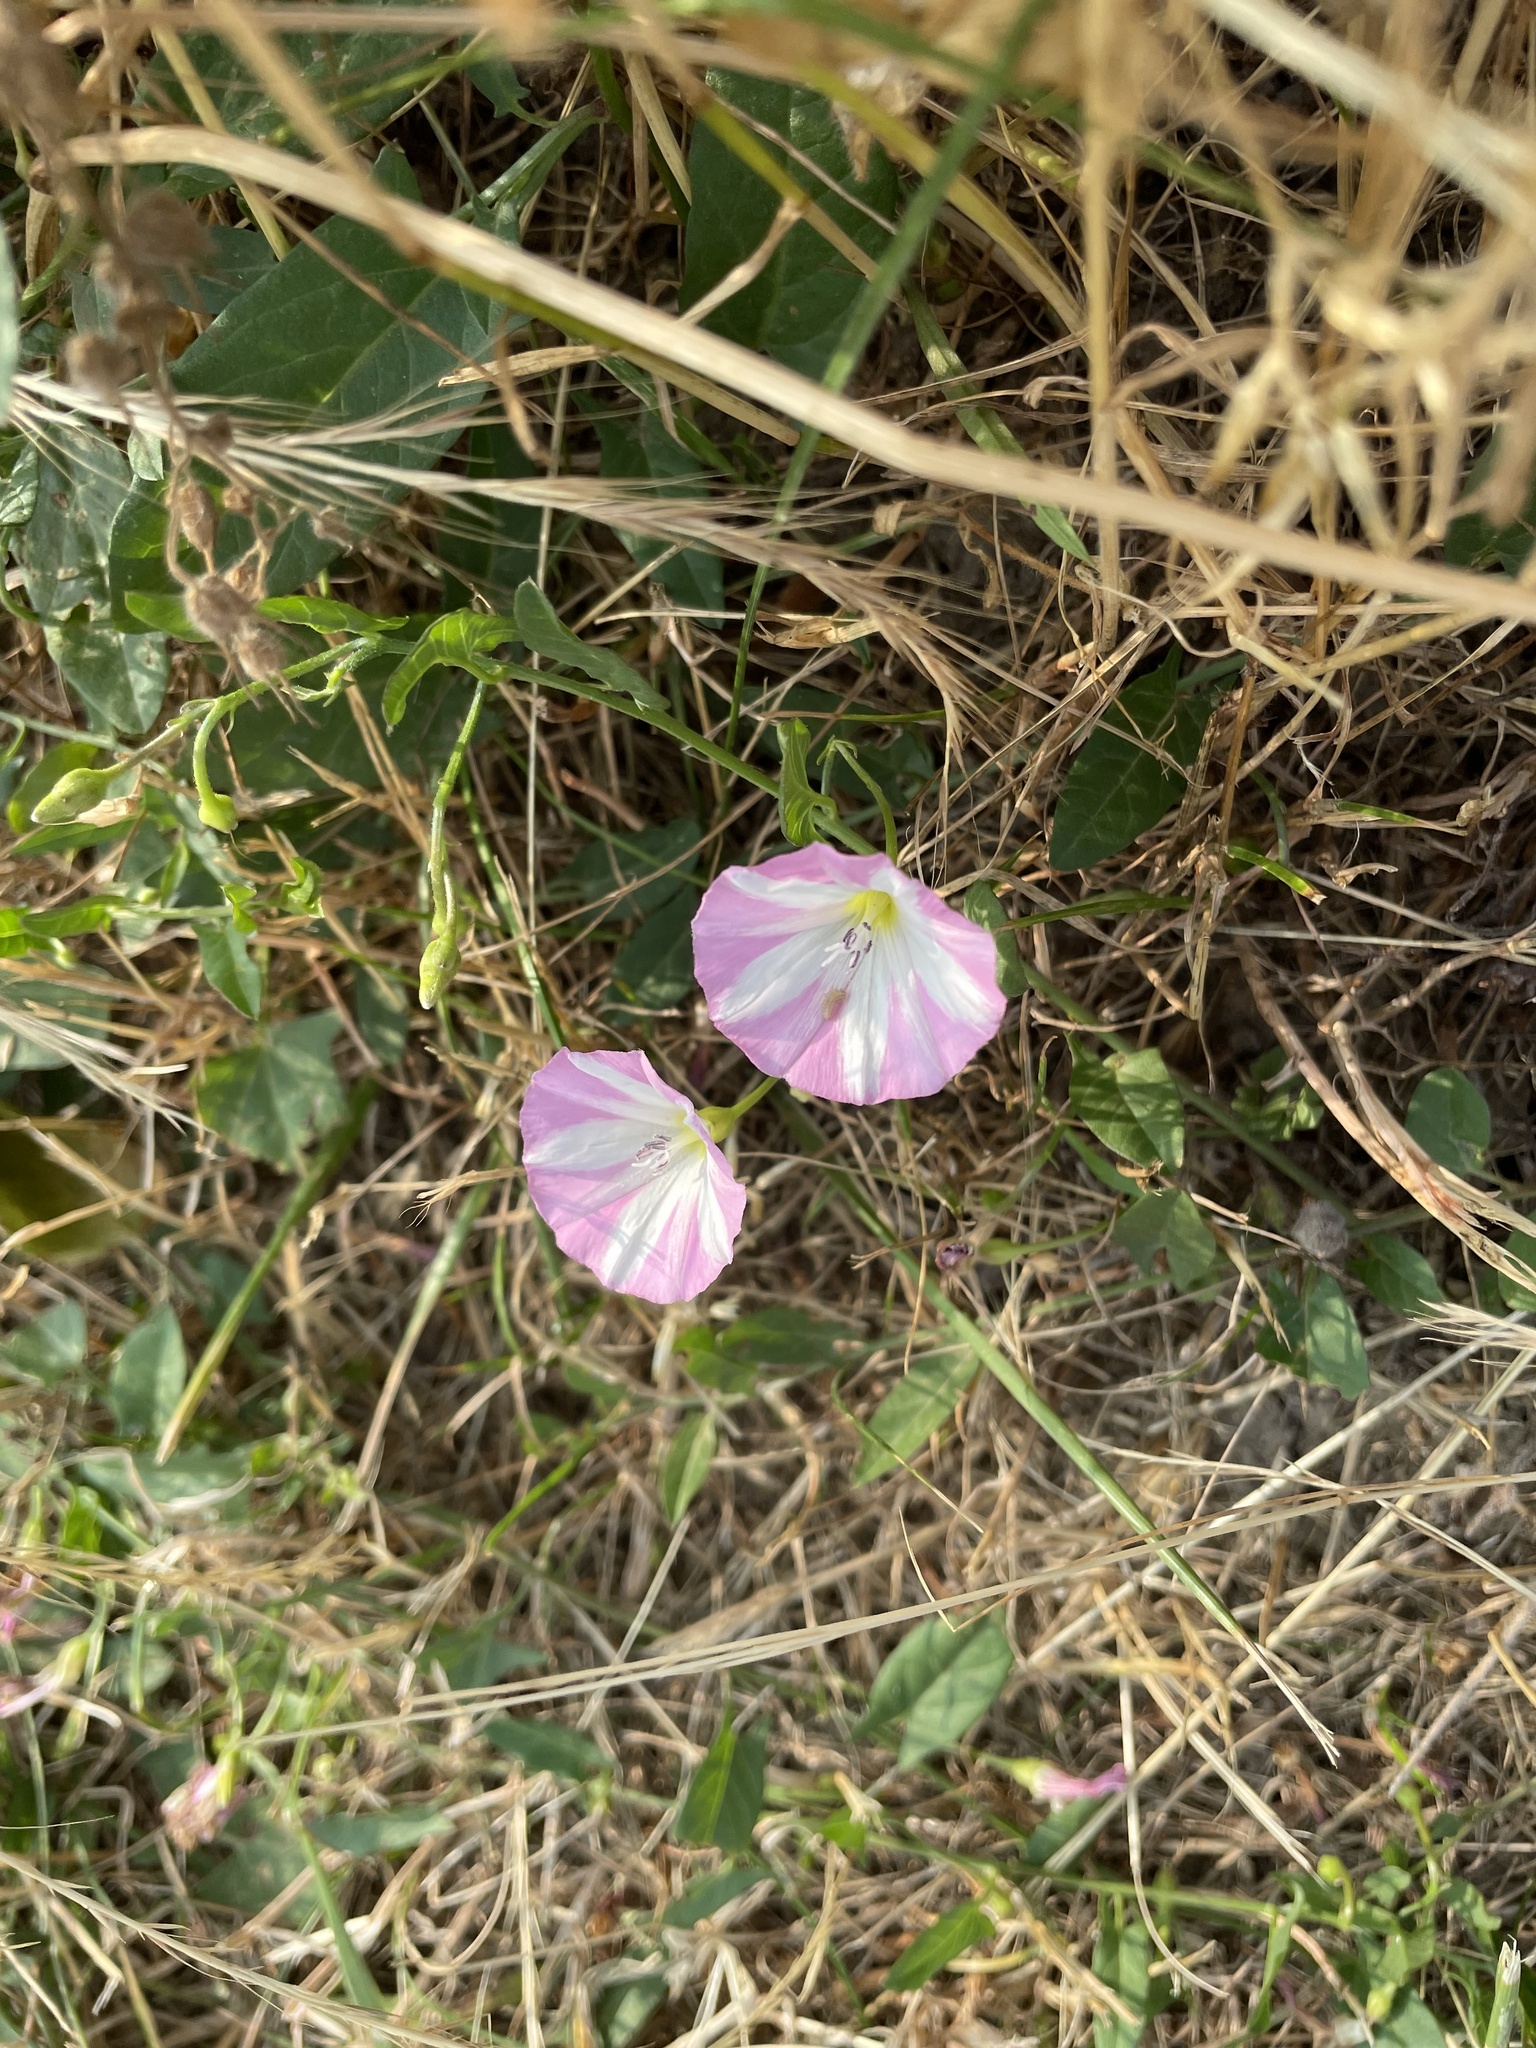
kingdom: Plantae
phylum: Tracheophyta
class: Magnoliopsida
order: Solanales
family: Convolvulaceae
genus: Convolvulus
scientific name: Convolvulus arvensis
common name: Field bindweed
